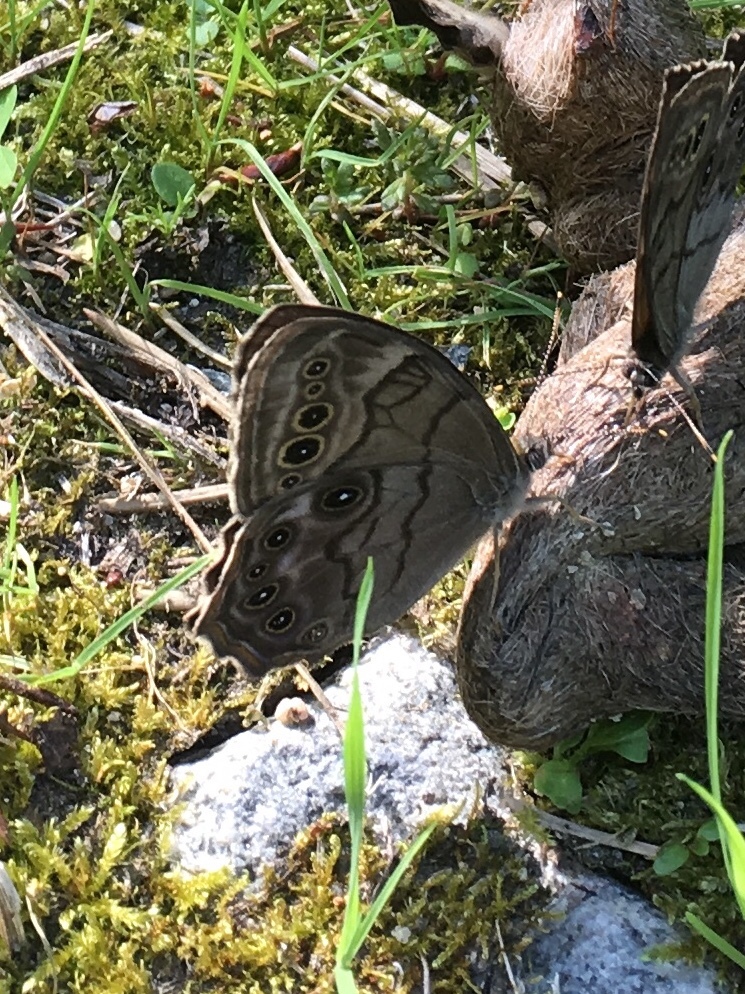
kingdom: Animalia
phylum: Arthropoda
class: Insecta
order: Lepidoptera
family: Nymphalidae
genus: Lethe
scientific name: Lethe anthedon
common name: Northern pearly-eye
